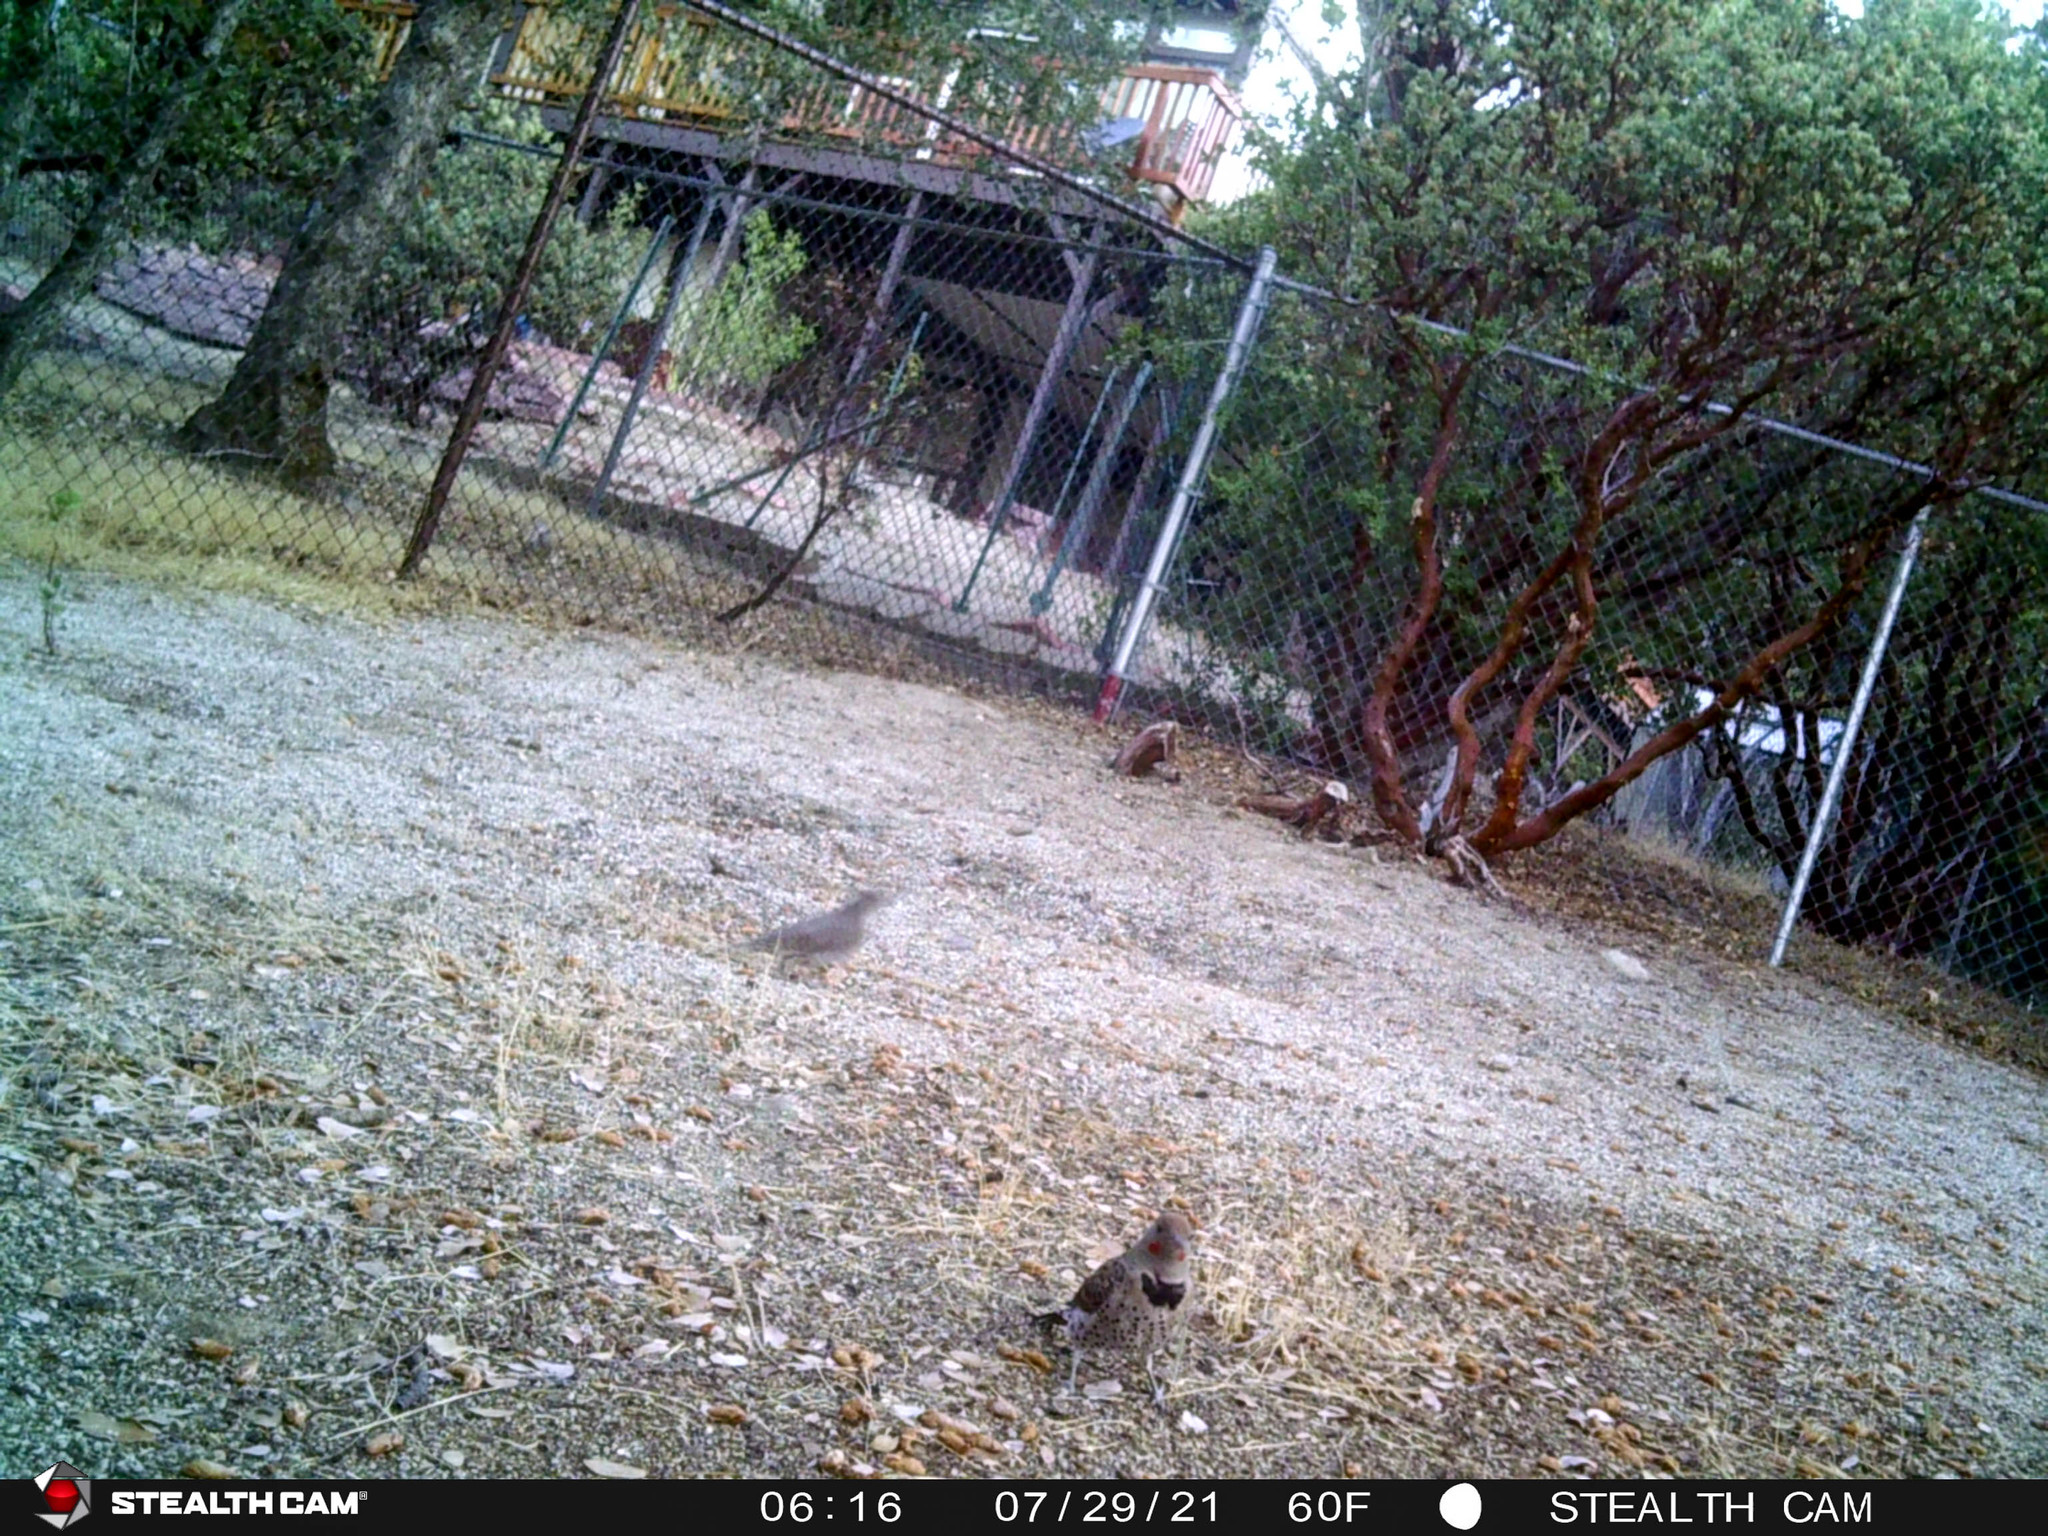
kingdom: Animalia
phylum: Chordata
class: Aves
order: Piciformes
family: Picidae
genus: Colaptes
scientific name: Colaptes auratus
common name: Northern flicker
